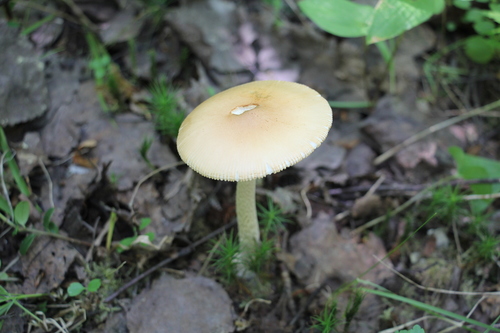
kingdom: Fungi
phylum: Basidiomycota
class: Agaricomycetes
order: Agaricales
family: Amanitaceae
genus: Amanita
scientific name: Amanita crocea
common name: Orange grisette
